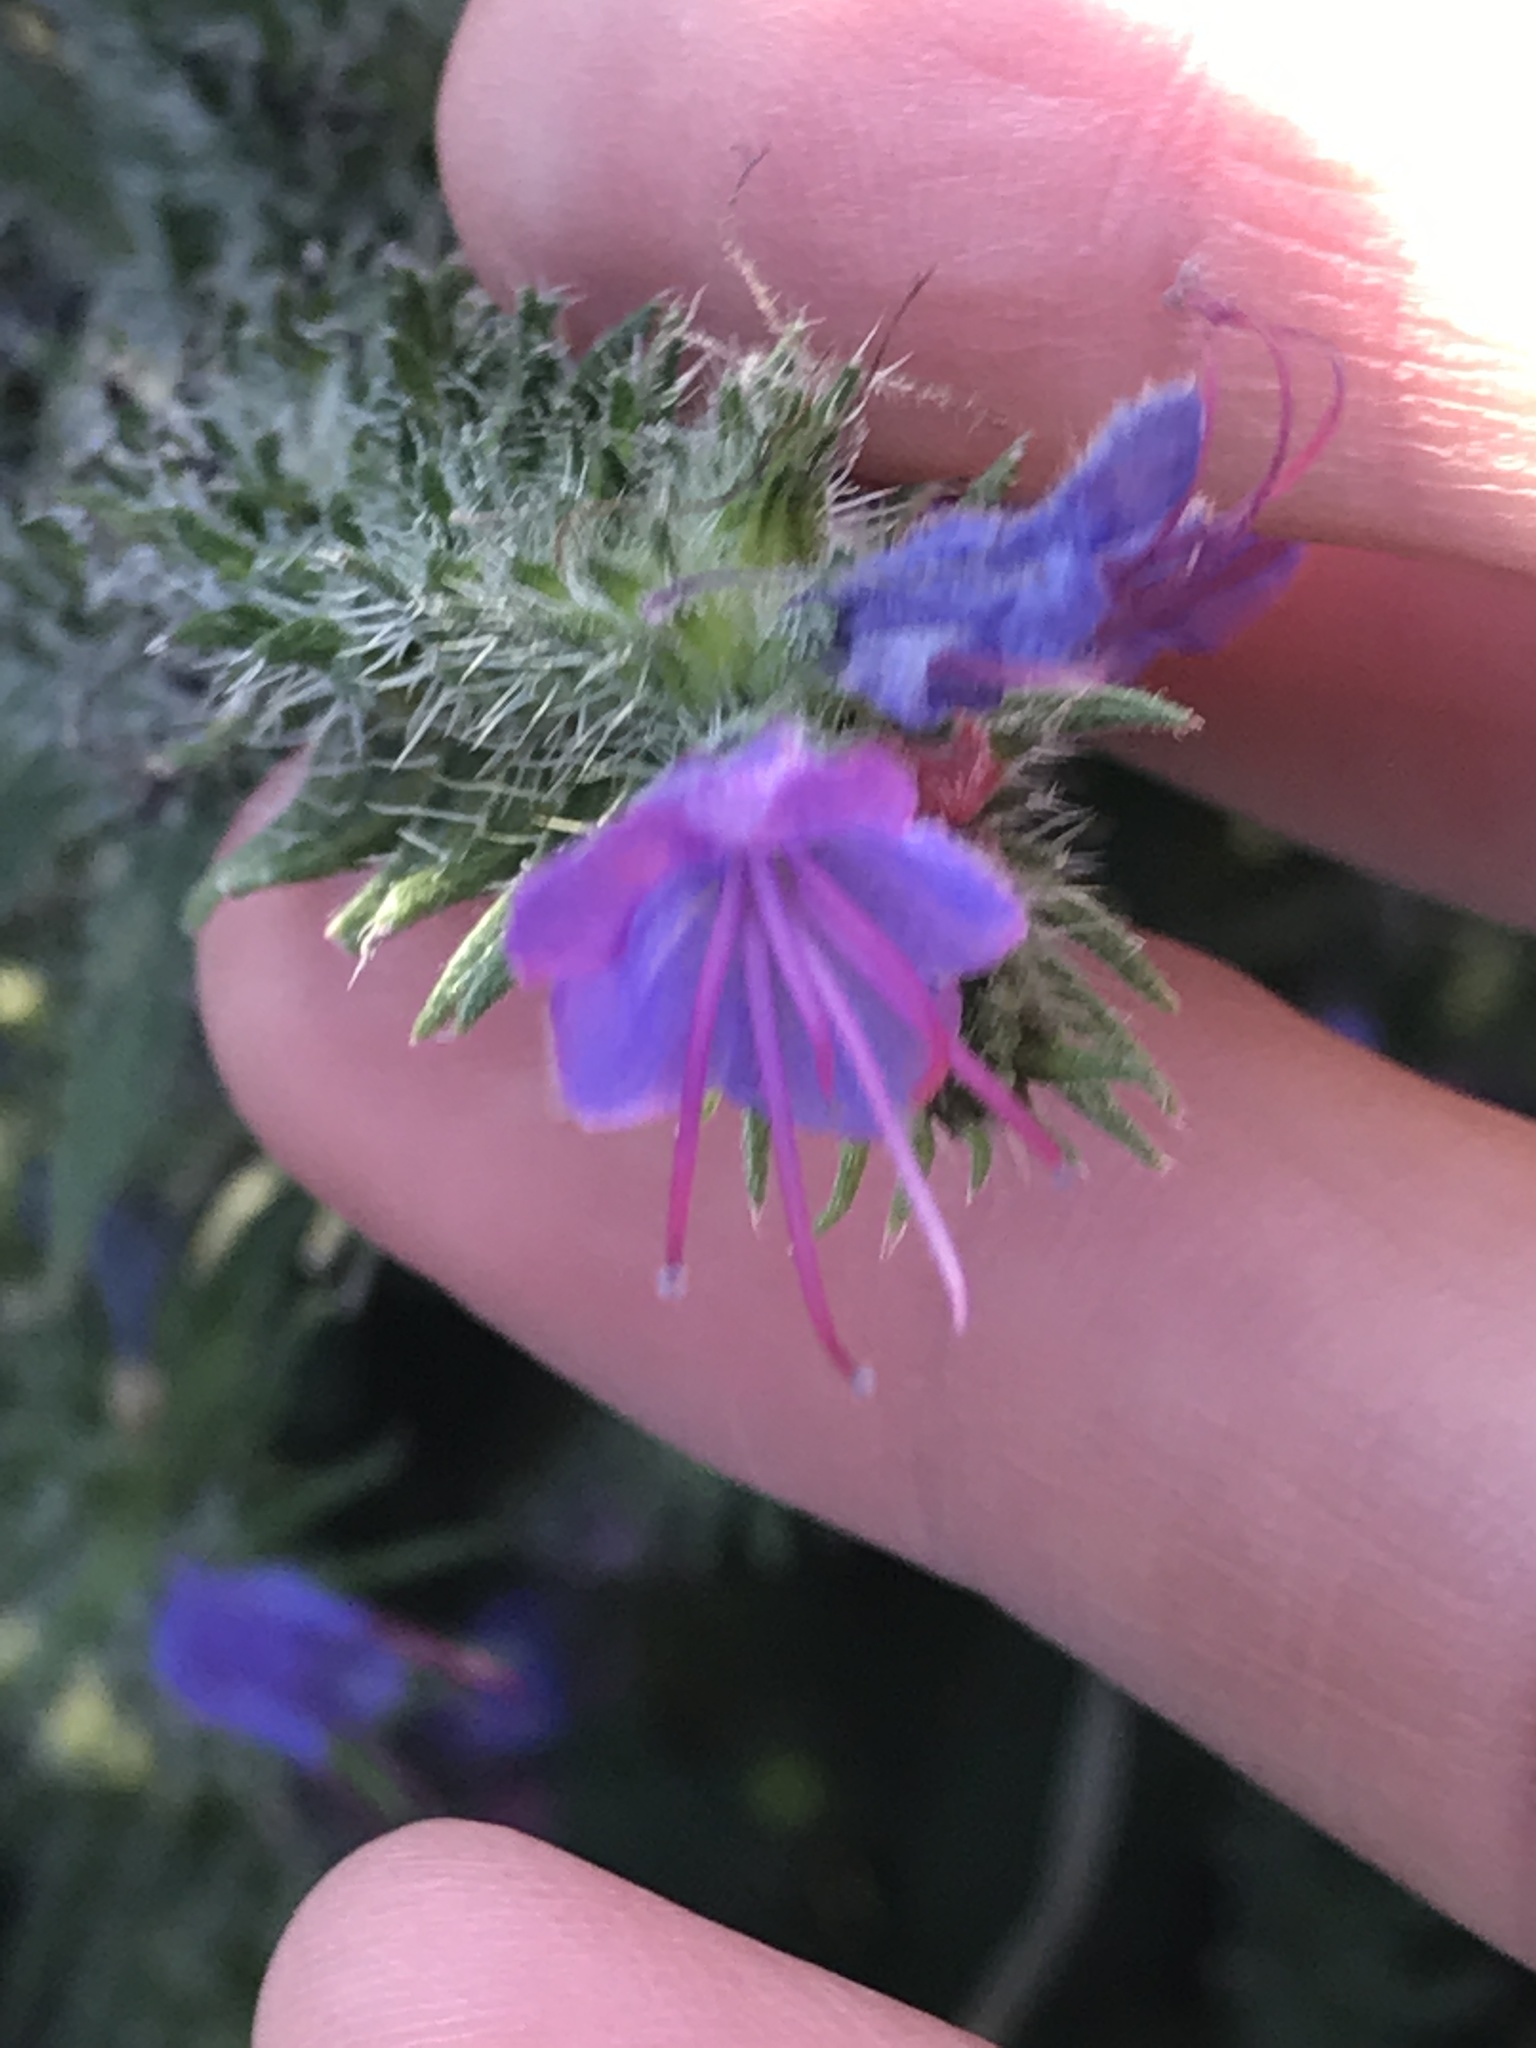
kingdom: Plantae
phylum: Tracheophyta
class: Magnoliopsida
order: Boraginales
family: Boraginaceae
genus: Echium
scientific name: Echium vulgare
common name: Common viper's bugloss
